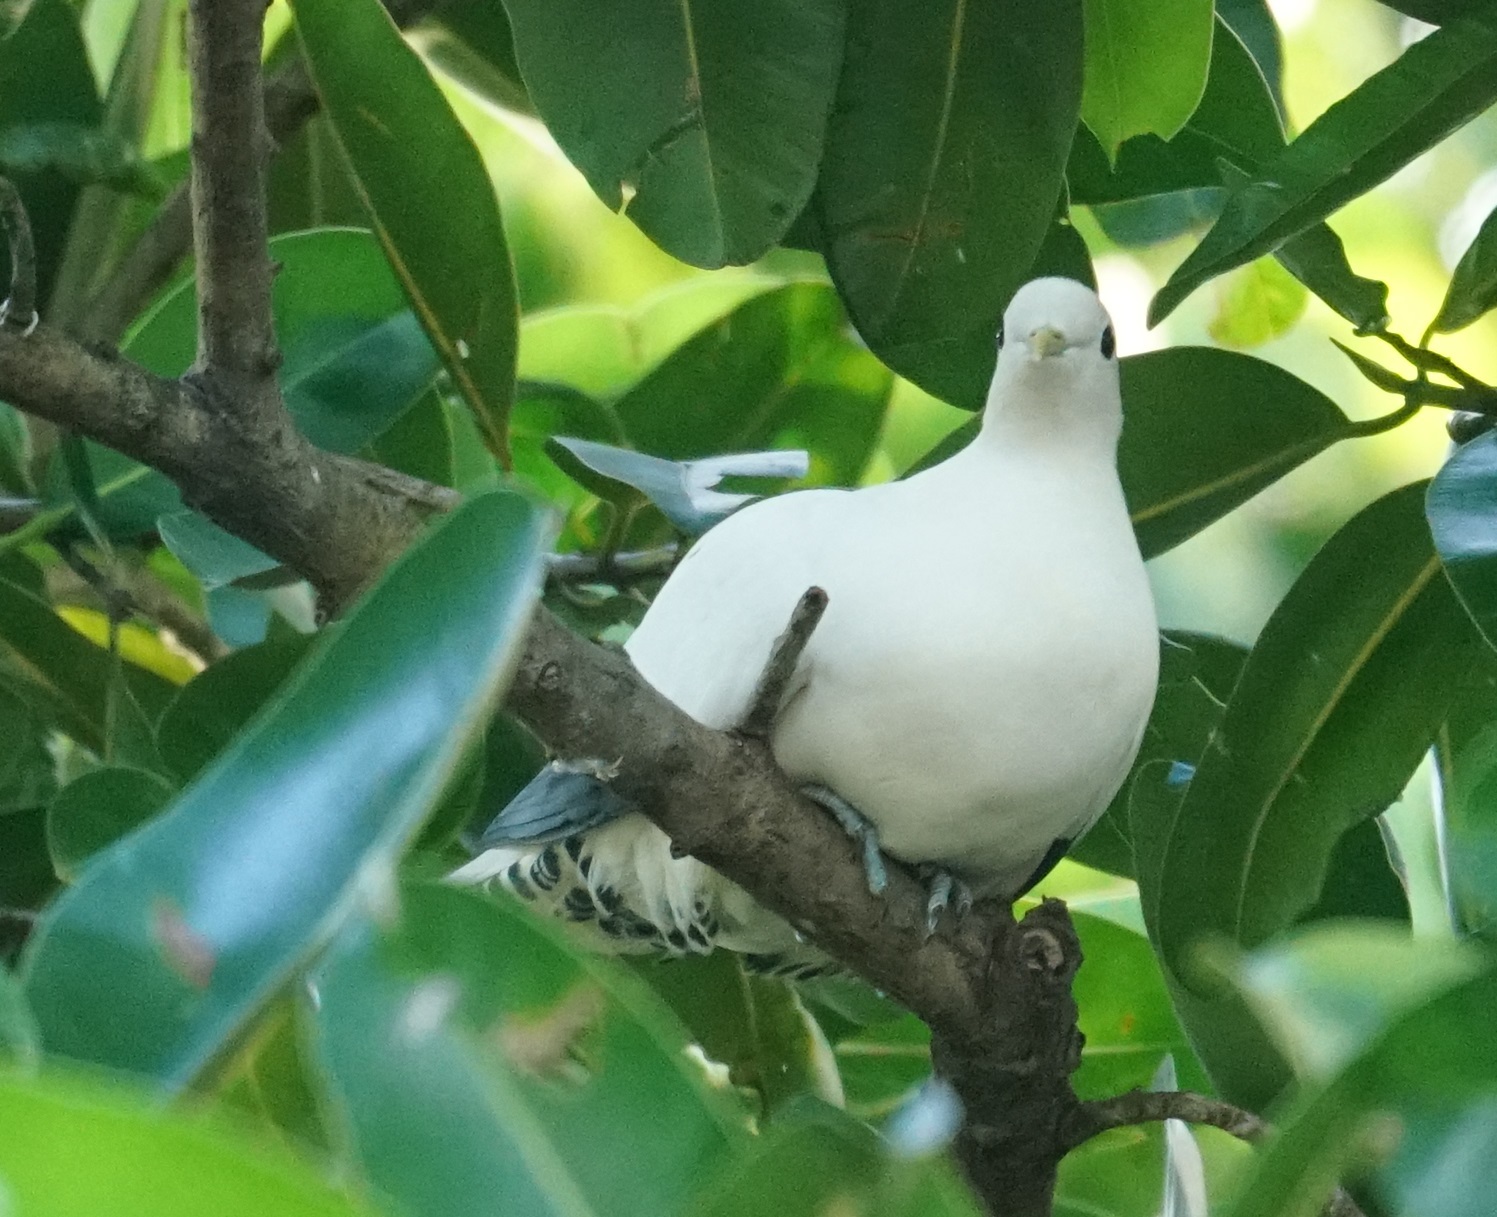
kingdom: Animalia
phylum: Chordata
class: Aves
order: Columbiformes
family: Columbidae
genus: Ducula
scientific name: Ducula spilorrhoa
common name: Torresian imperial pigeon
